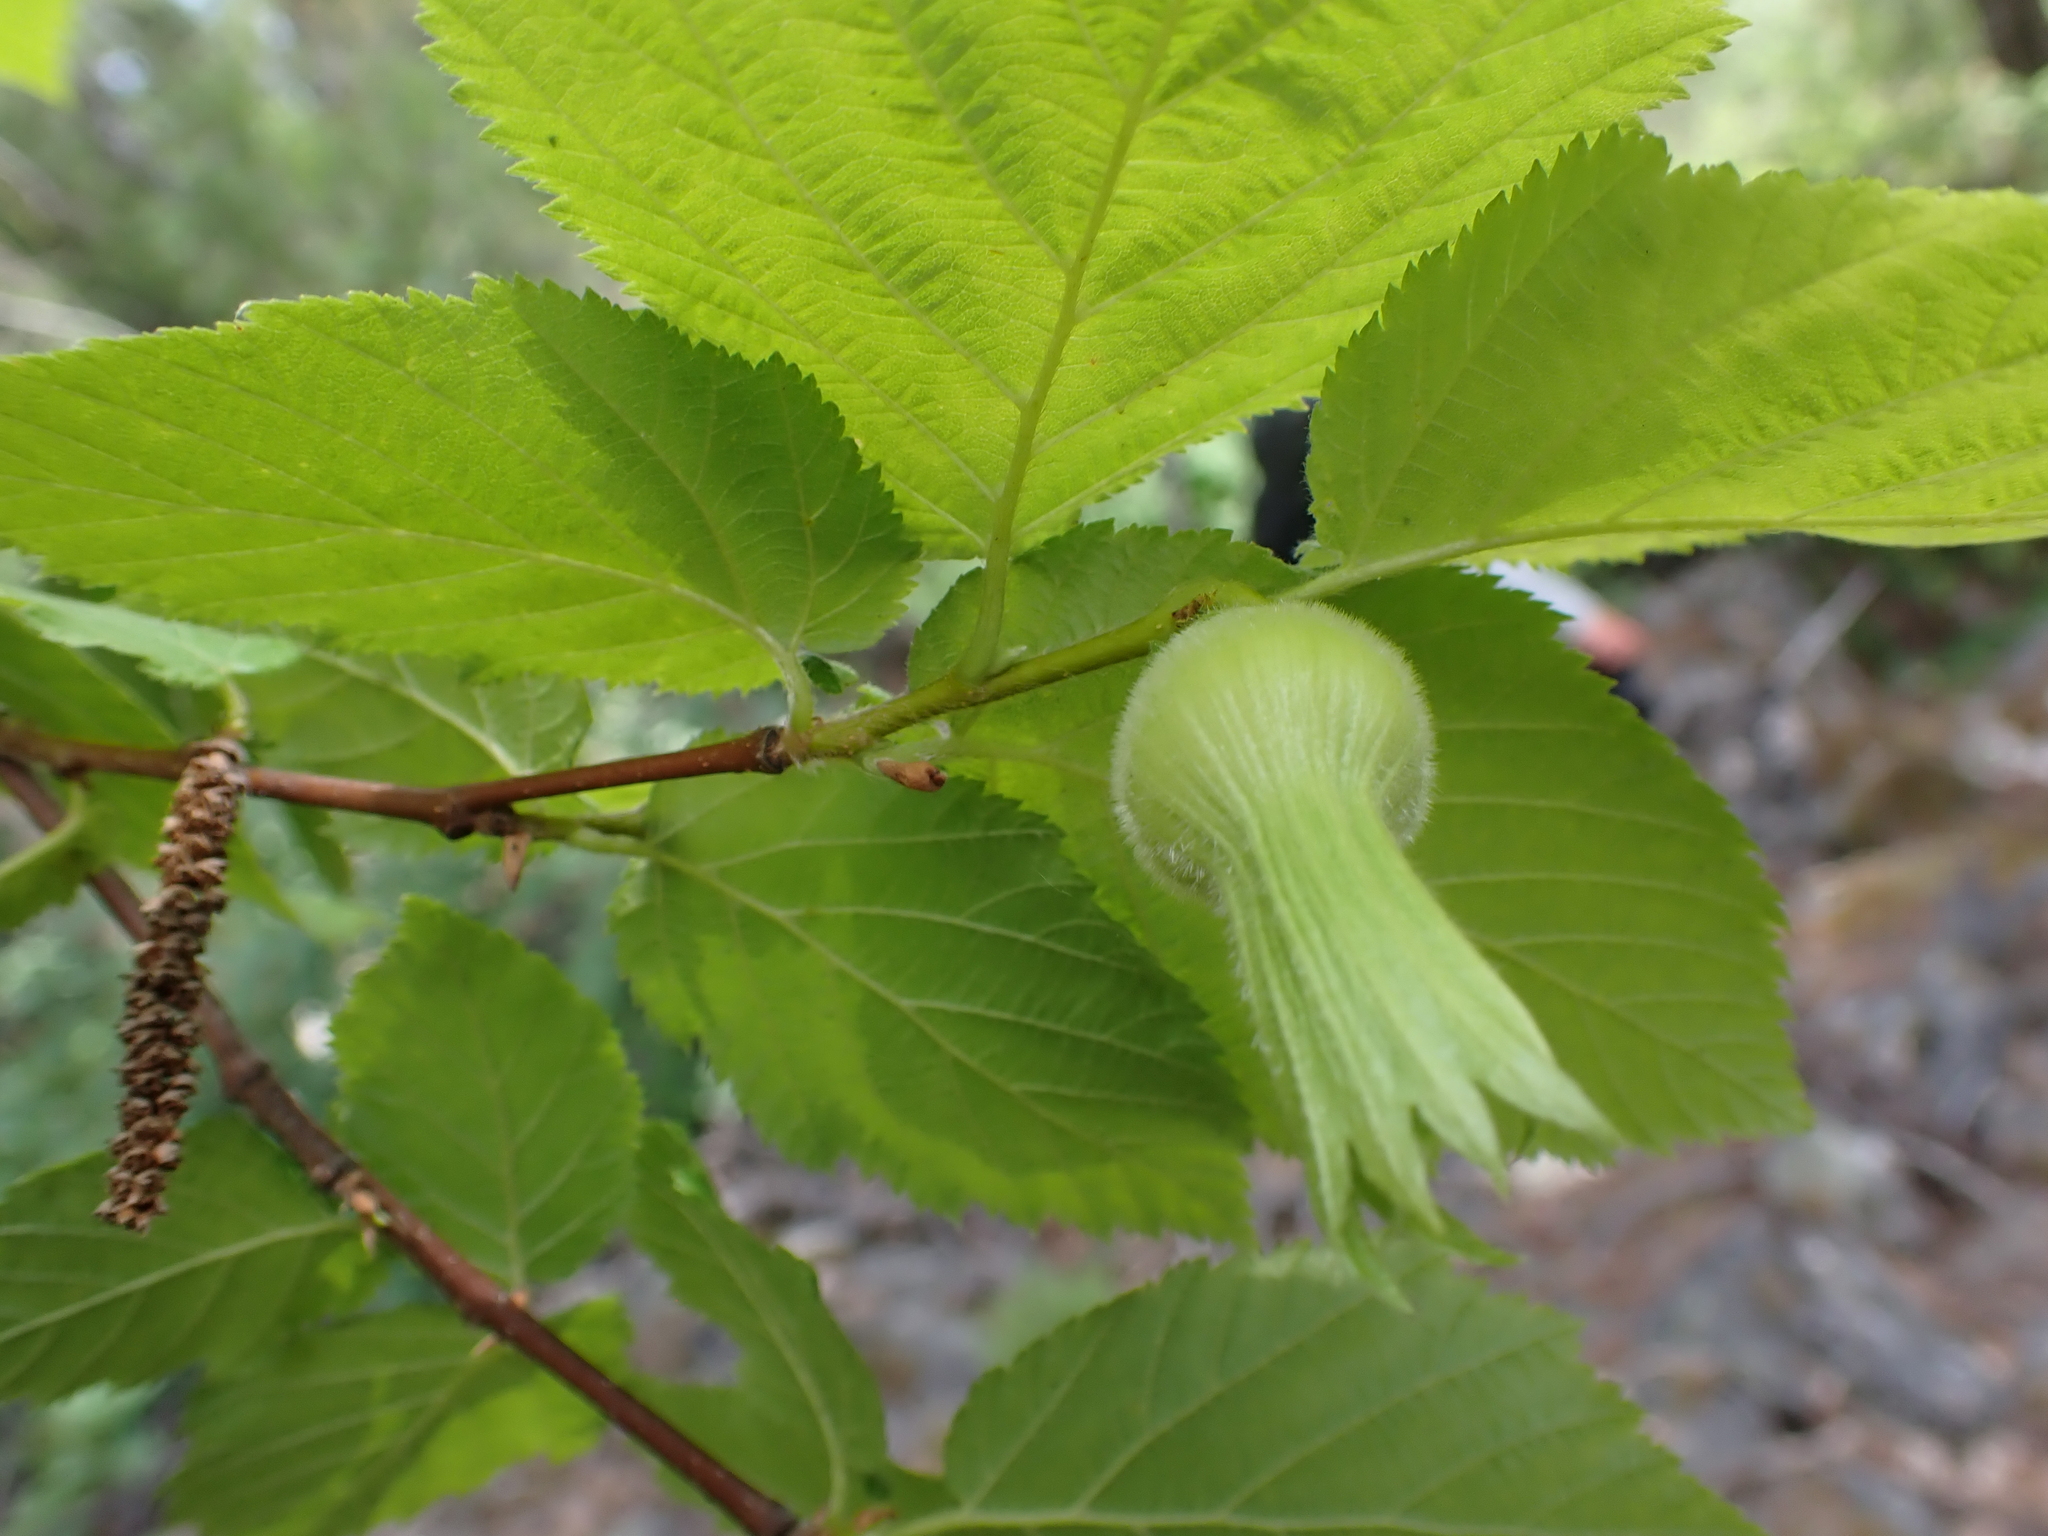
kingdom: Plantae
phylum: Tracheophyta
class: Magnoliopsida
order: Fagales
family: Betulaceae
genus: Corylus
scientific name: Corylus cornuta
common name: Beaked hazel
